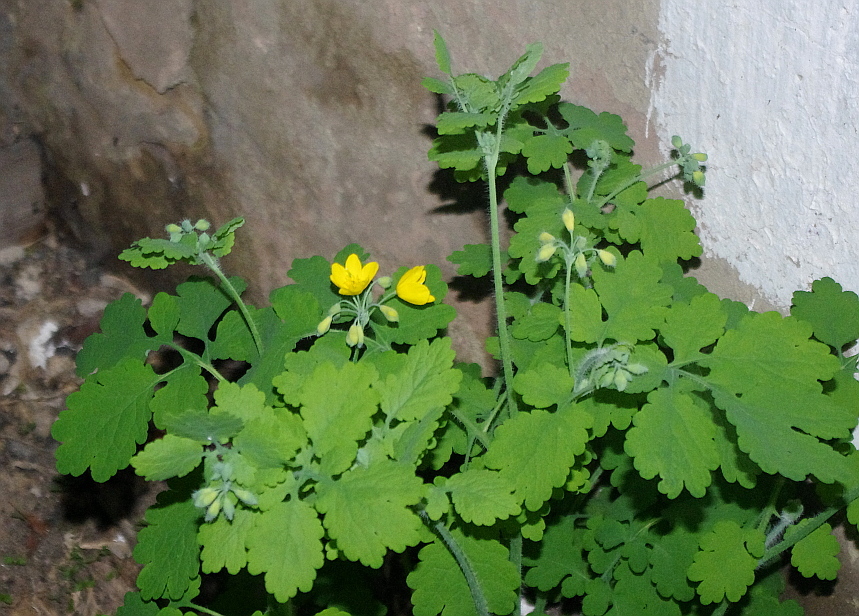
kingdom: Plantae
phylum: Tracheophyta
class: Magnoliopsida
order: Ranunculales
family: Papaveraceae
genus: Chelidonium
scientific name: Chelidonium majus
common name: Greater celandine
